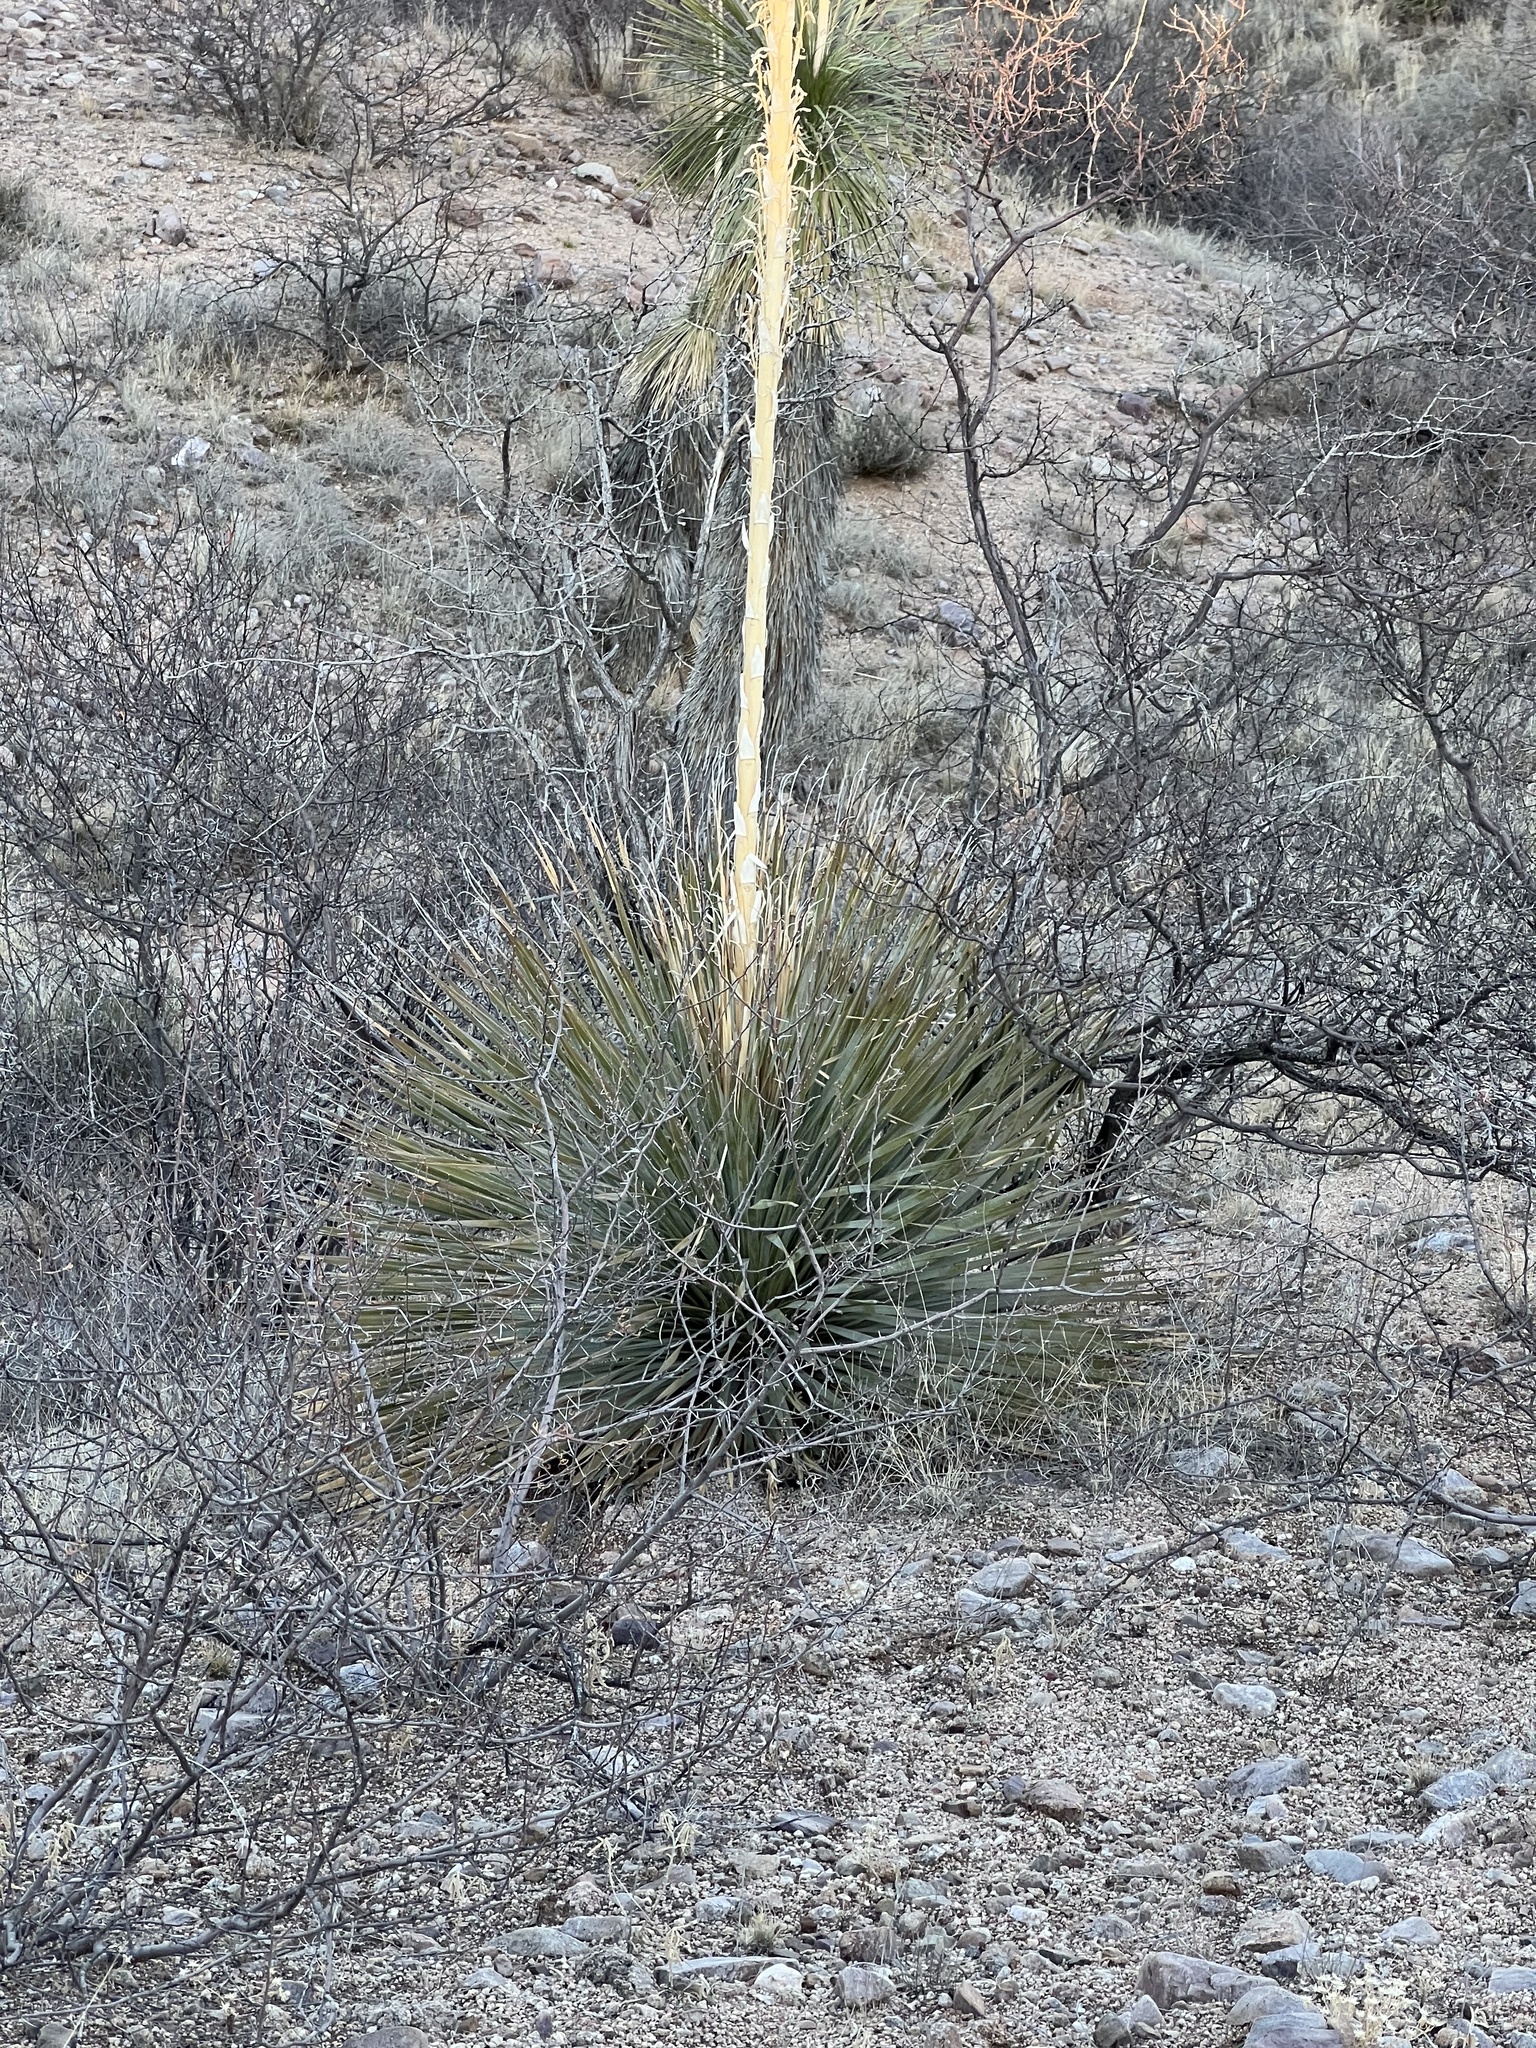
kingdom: Plantae
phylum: Tracheophyta
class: Liliopsida
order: Asparagales
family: Asparagaceae
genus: Dasylirion
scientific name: Dasylirion wheeleri
